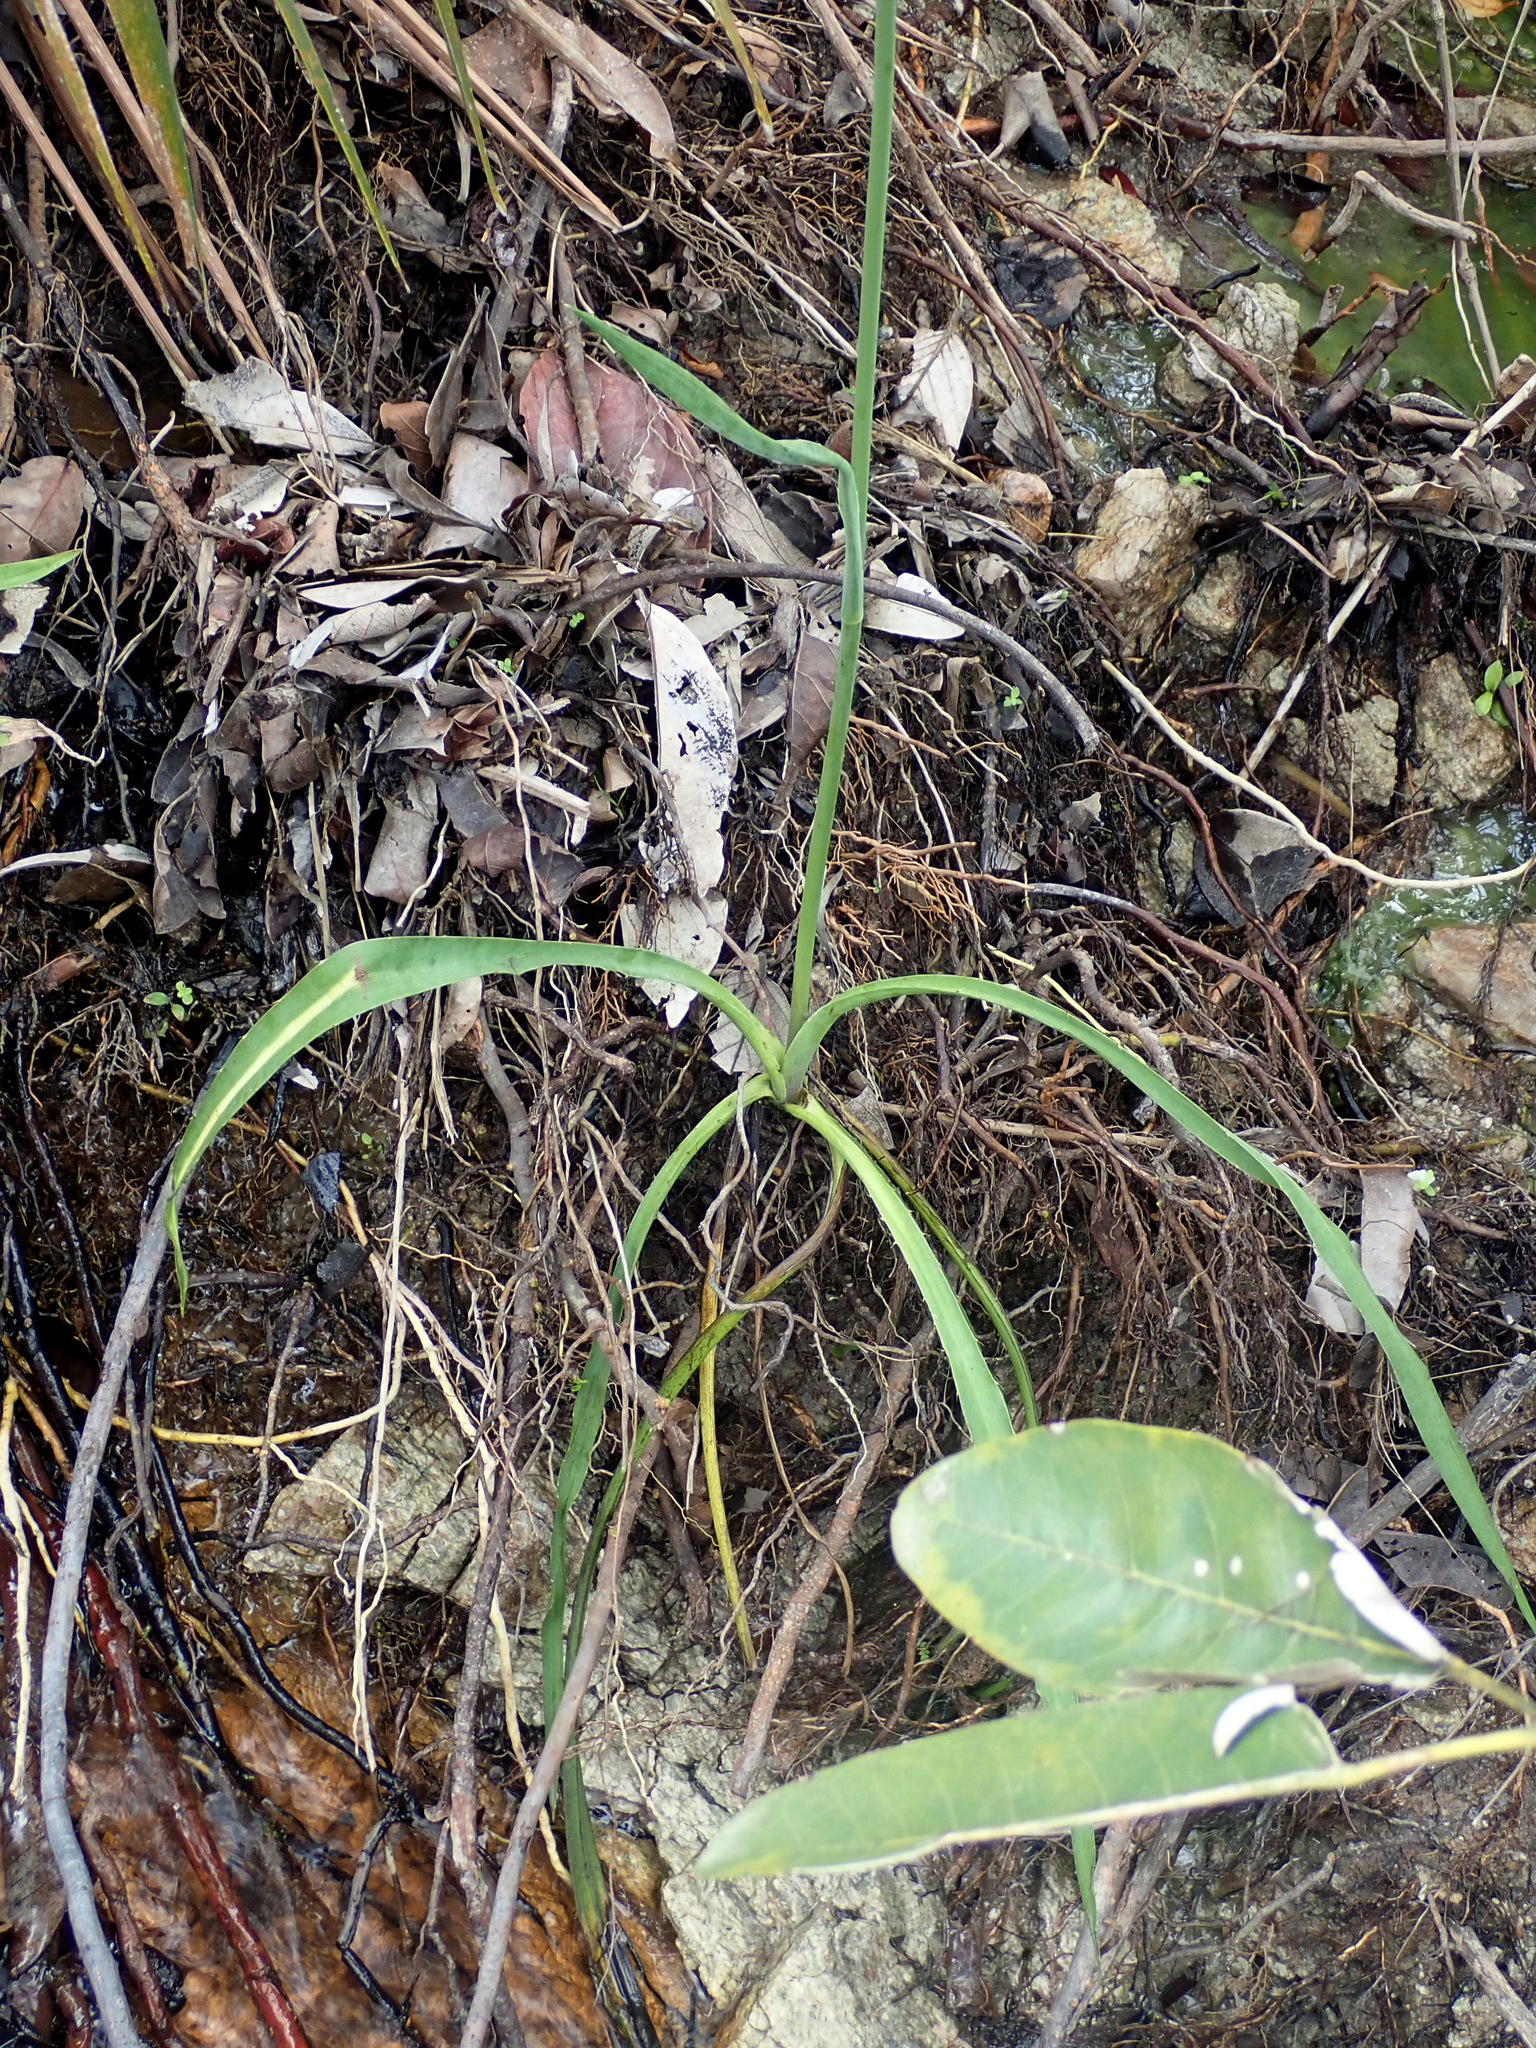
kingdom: Plantae
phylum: Tracheophyta
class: Magnoliopsida
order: Apiales
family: Apiaceae
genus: Eryngium
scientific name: Eryngium ebracteatum
